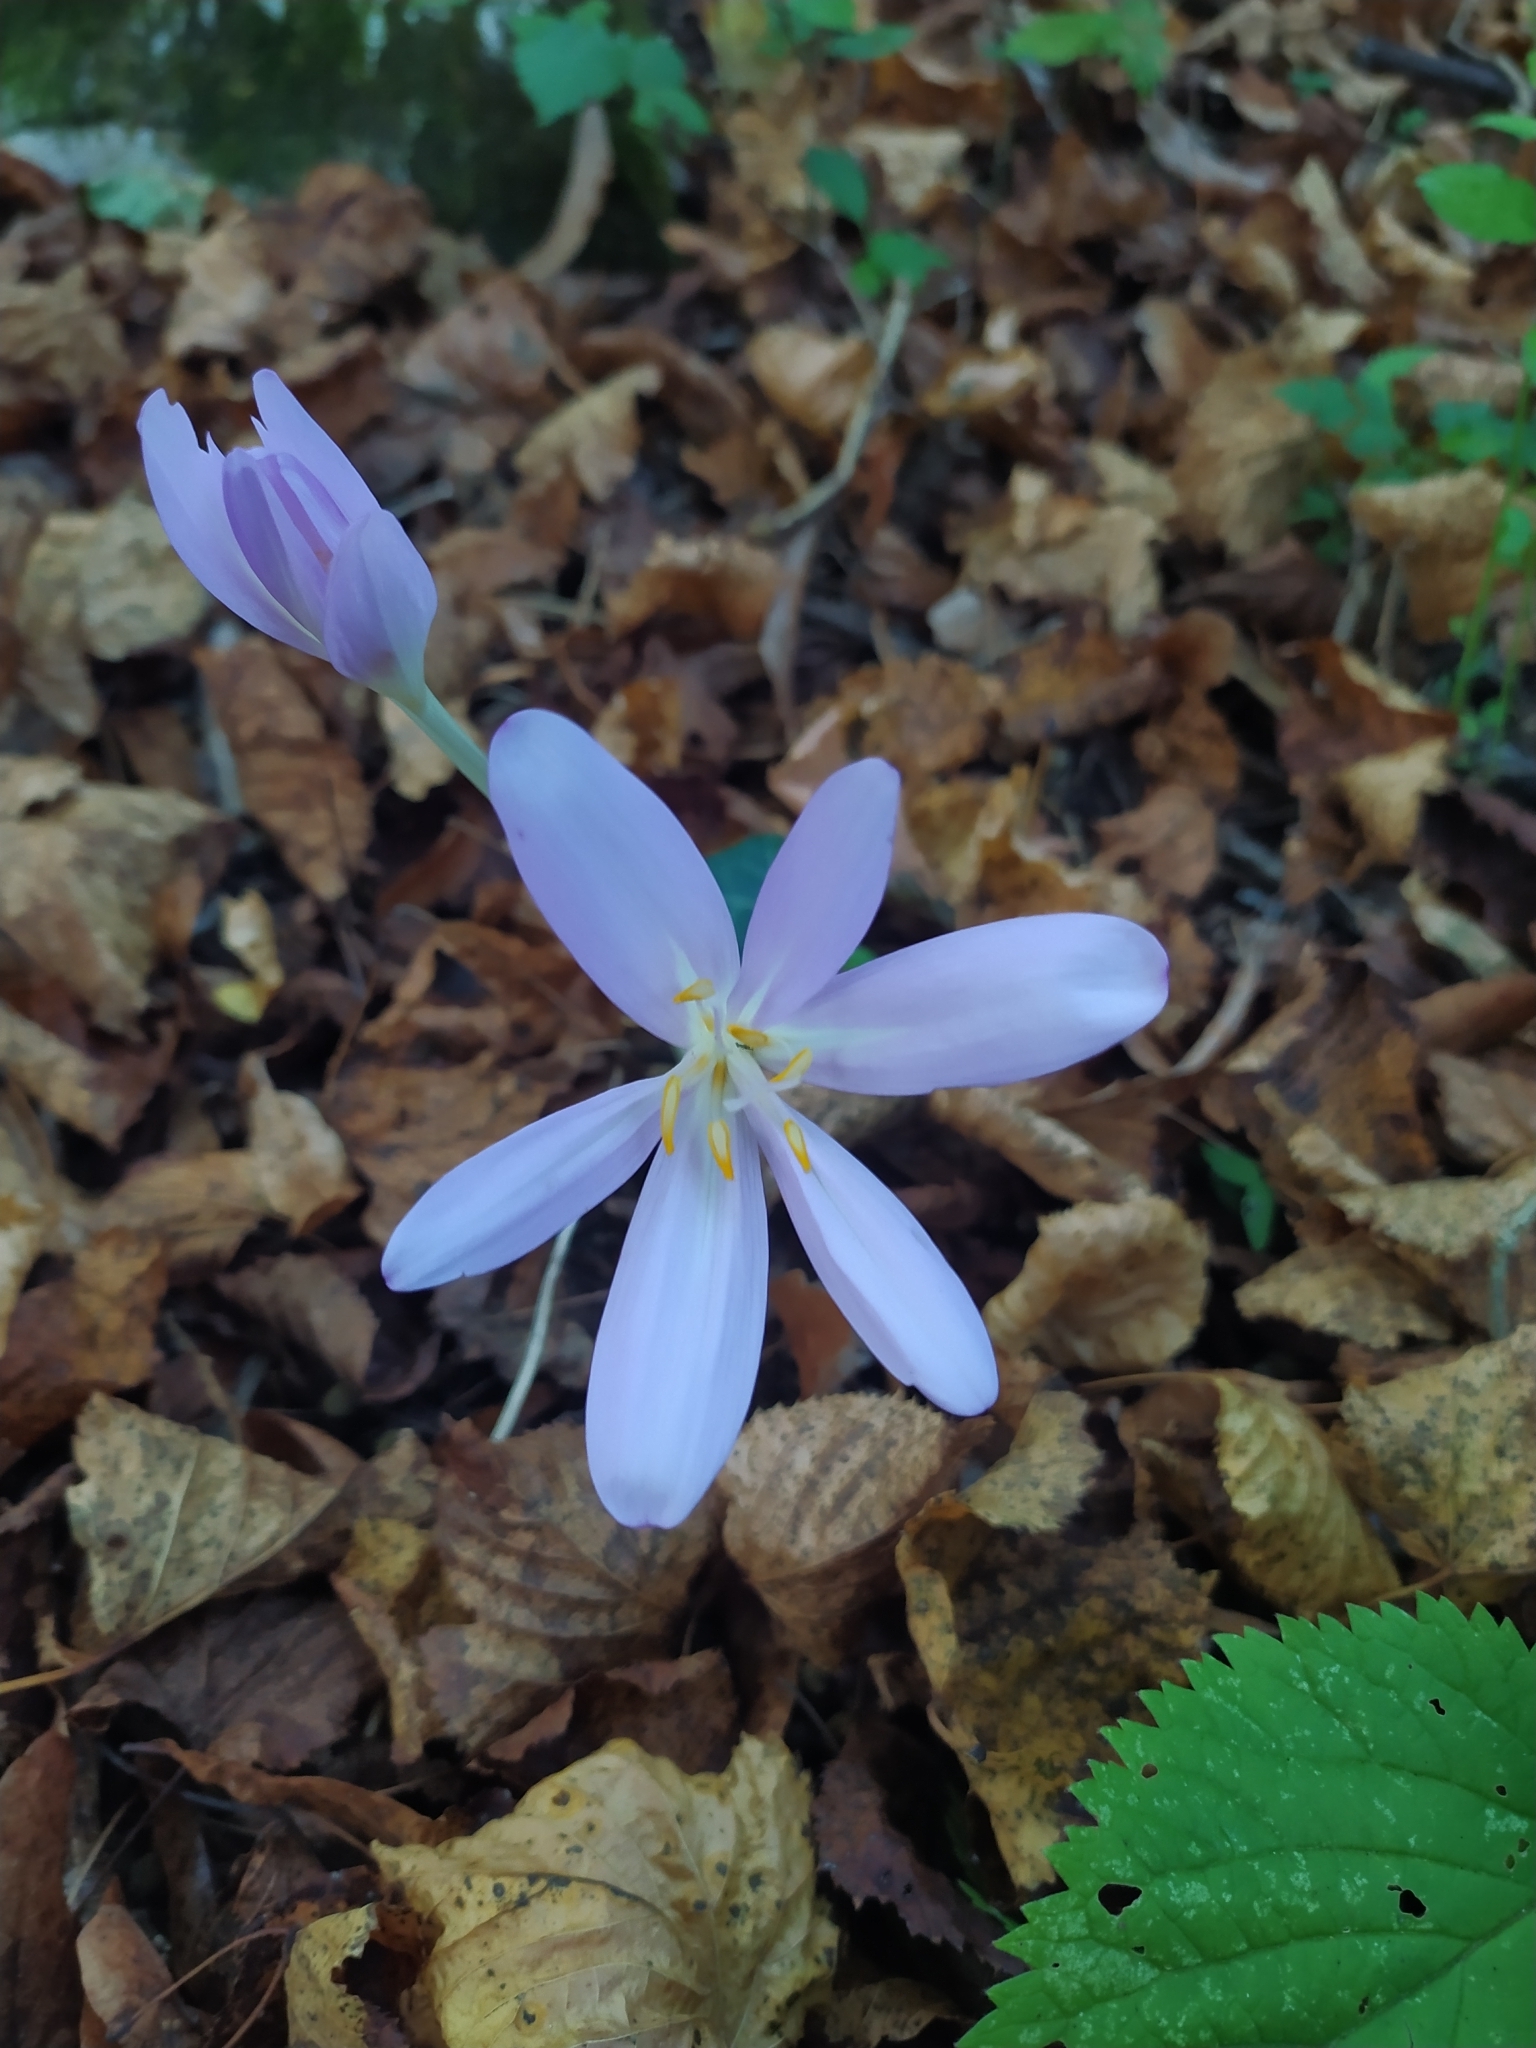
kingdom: Plantae
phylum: Tracheophyta
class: Liliopsida
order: Liliales
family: Colchicaceae
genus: Colchicum
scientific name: Colchicum autumnale
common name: Autumn crocus
